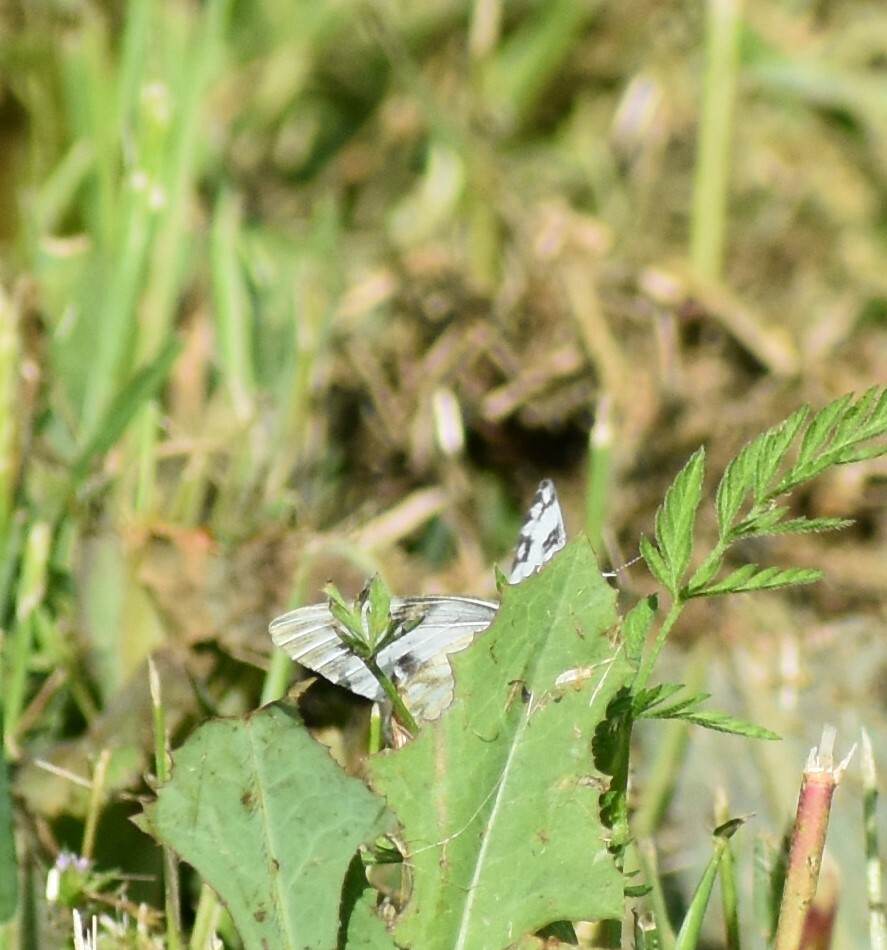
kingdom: Animalia
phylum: Arthropoda
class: Insecta
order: Lepidoptera
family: Pieridae
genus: Pontia
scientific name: Pontia protodice
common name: Checkered white
